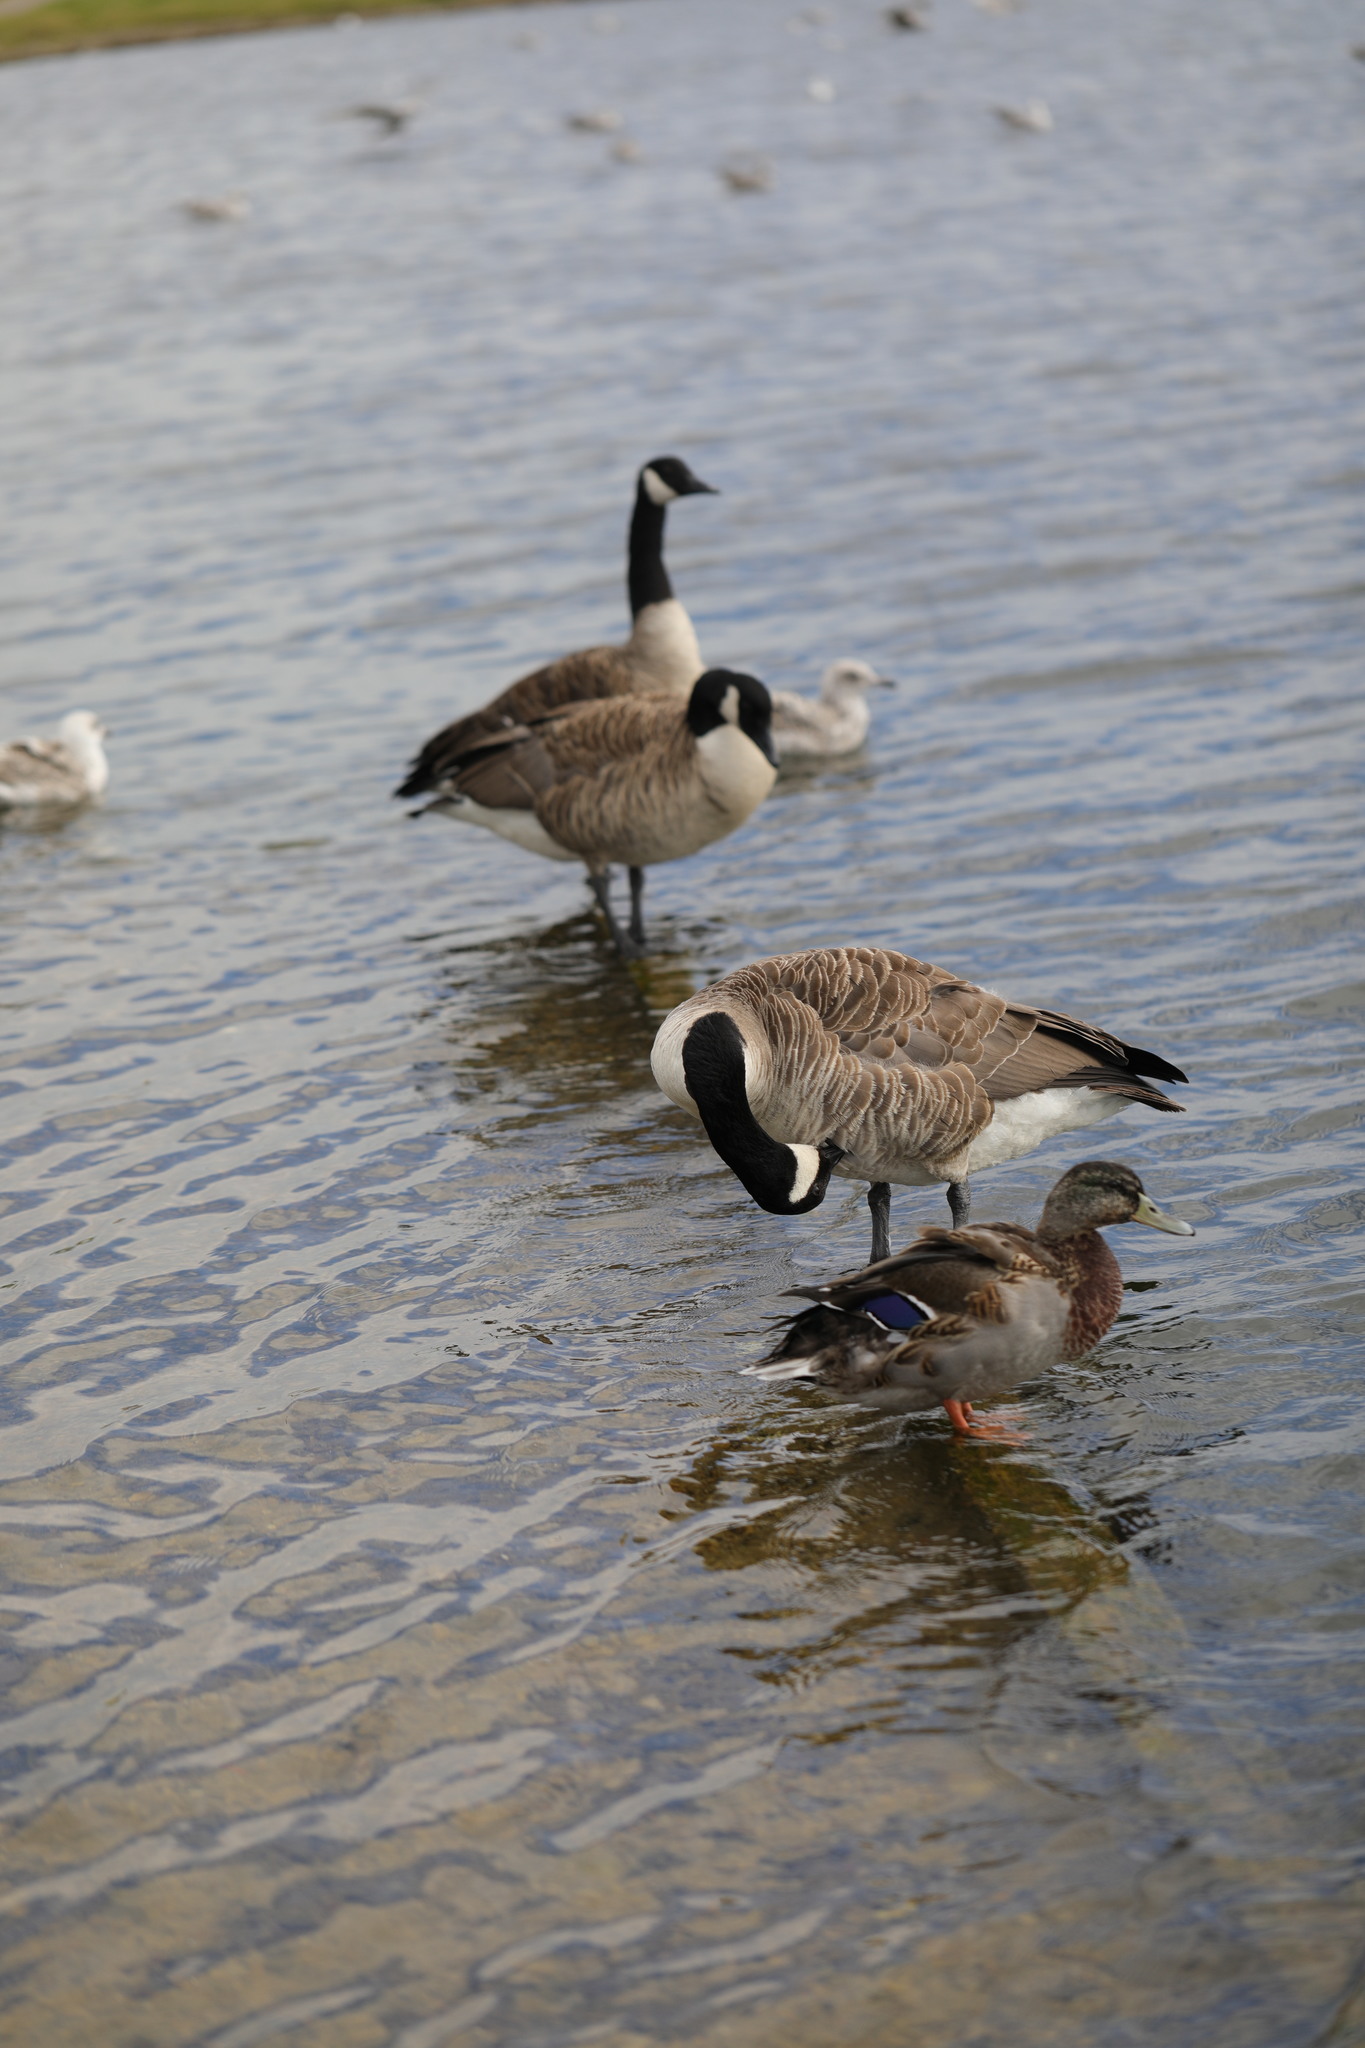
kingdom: Animalia
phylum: Chordata
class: Aves
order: Anseriformes
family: Anatidae
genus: Branta
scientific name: Branta canadensis
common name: Canada goose
